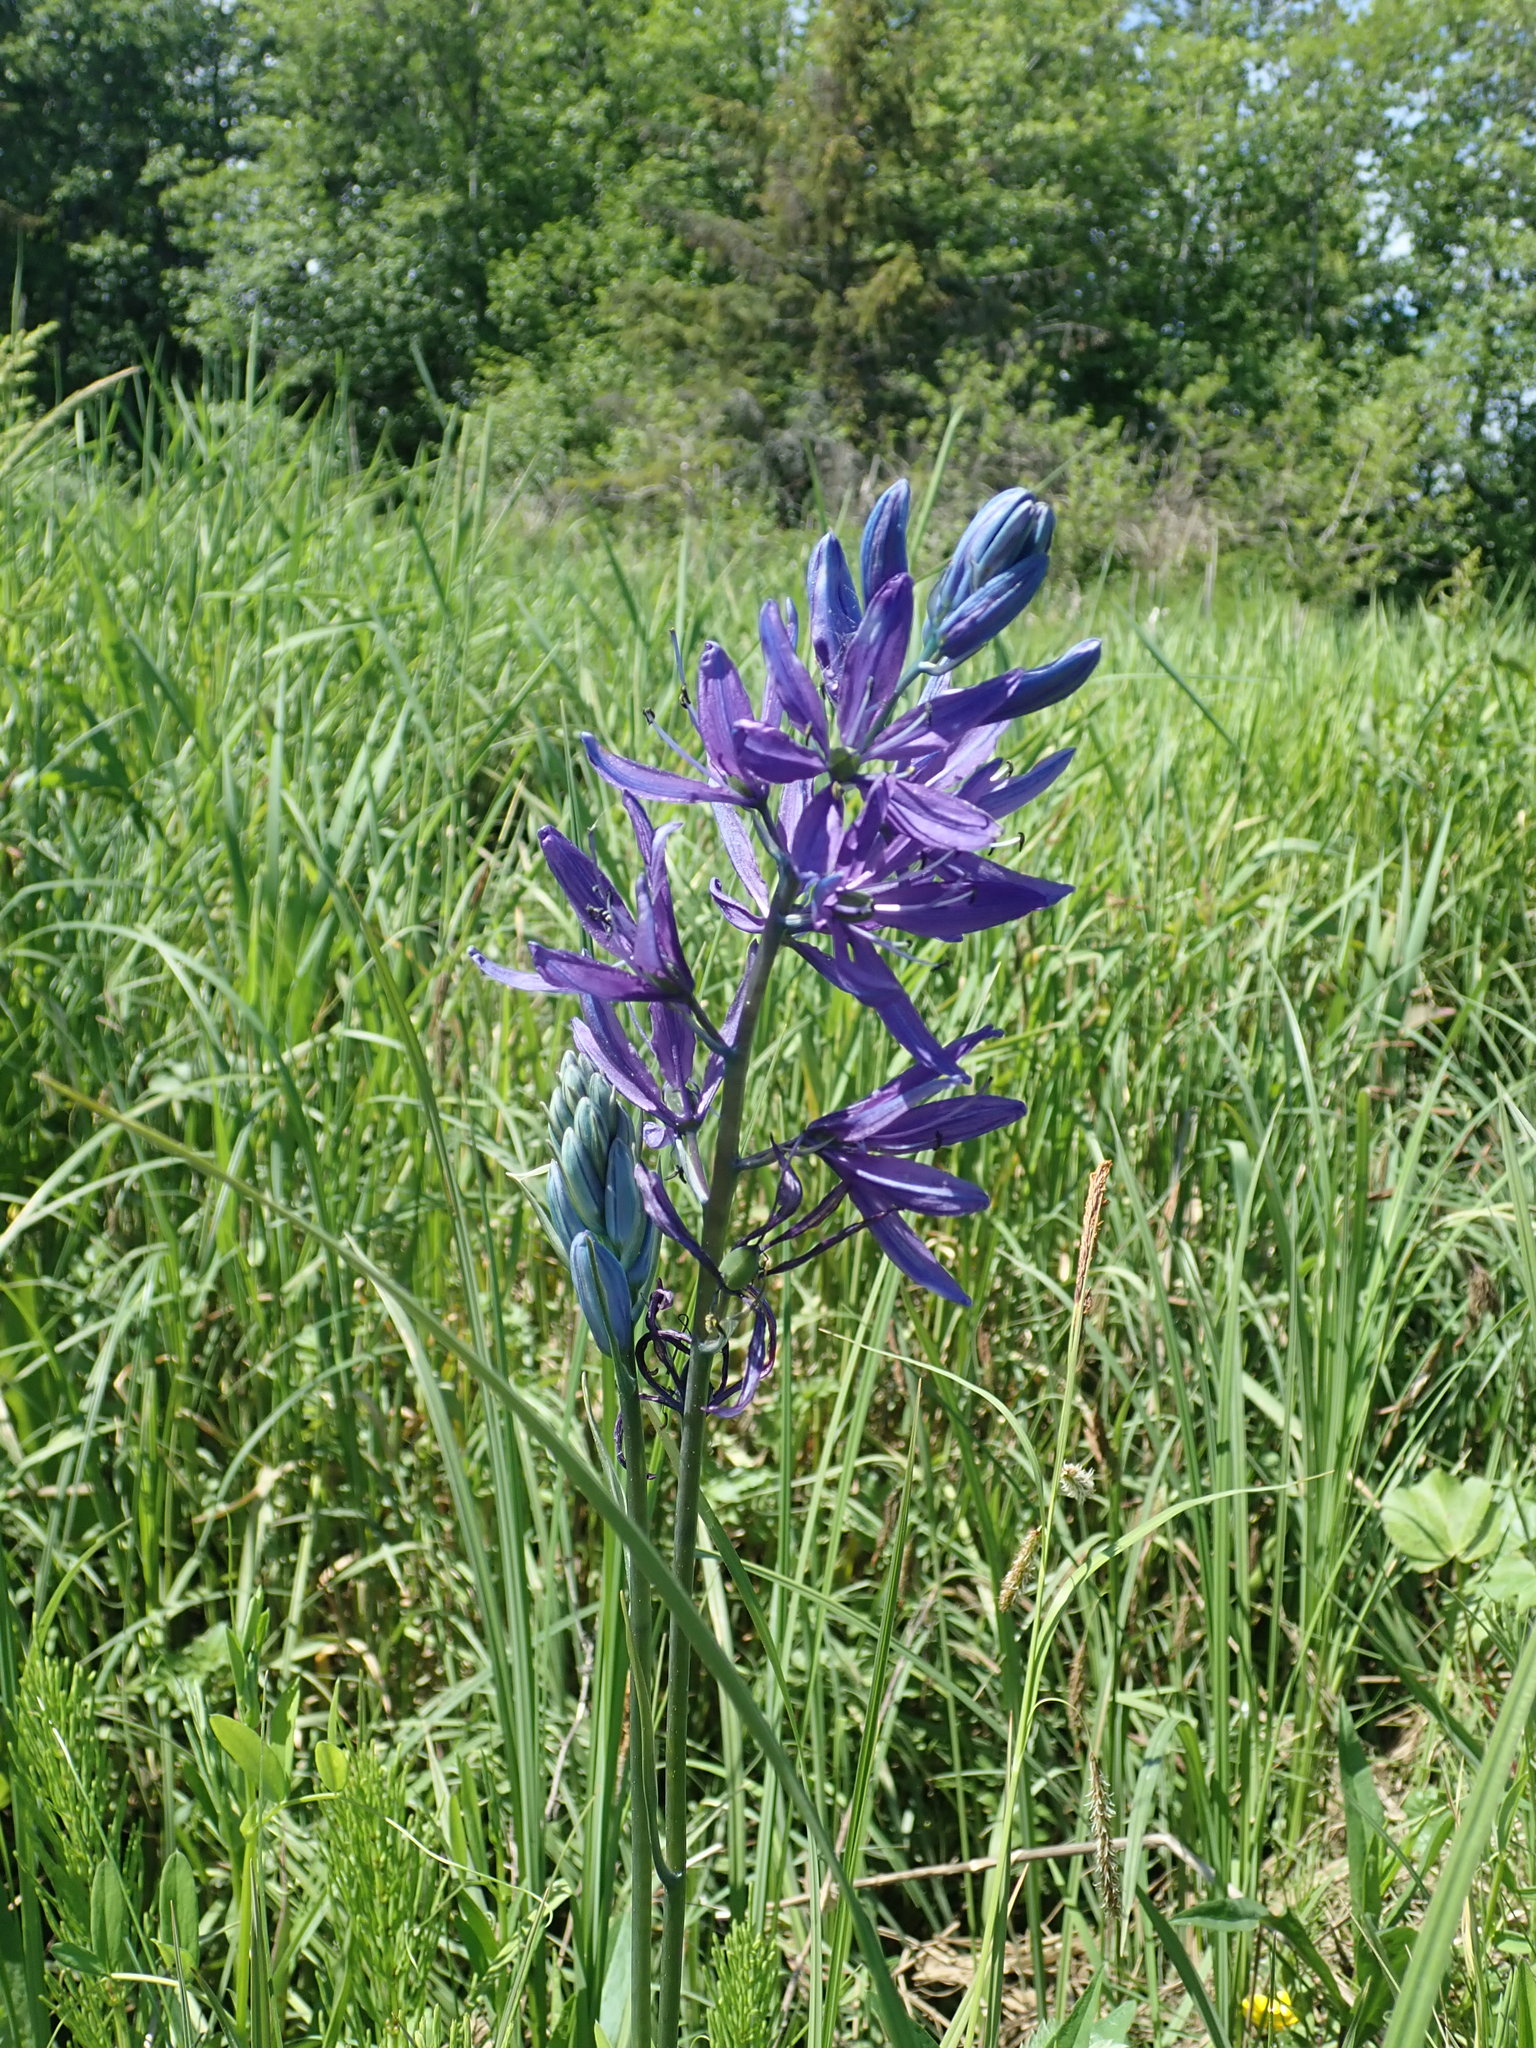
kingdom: Plantae
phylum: Tracheophyta
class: Liliopsida
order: Asparagales
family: Asparagaceae
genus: Camassia
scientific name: Camassia quamash
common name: Common camas
